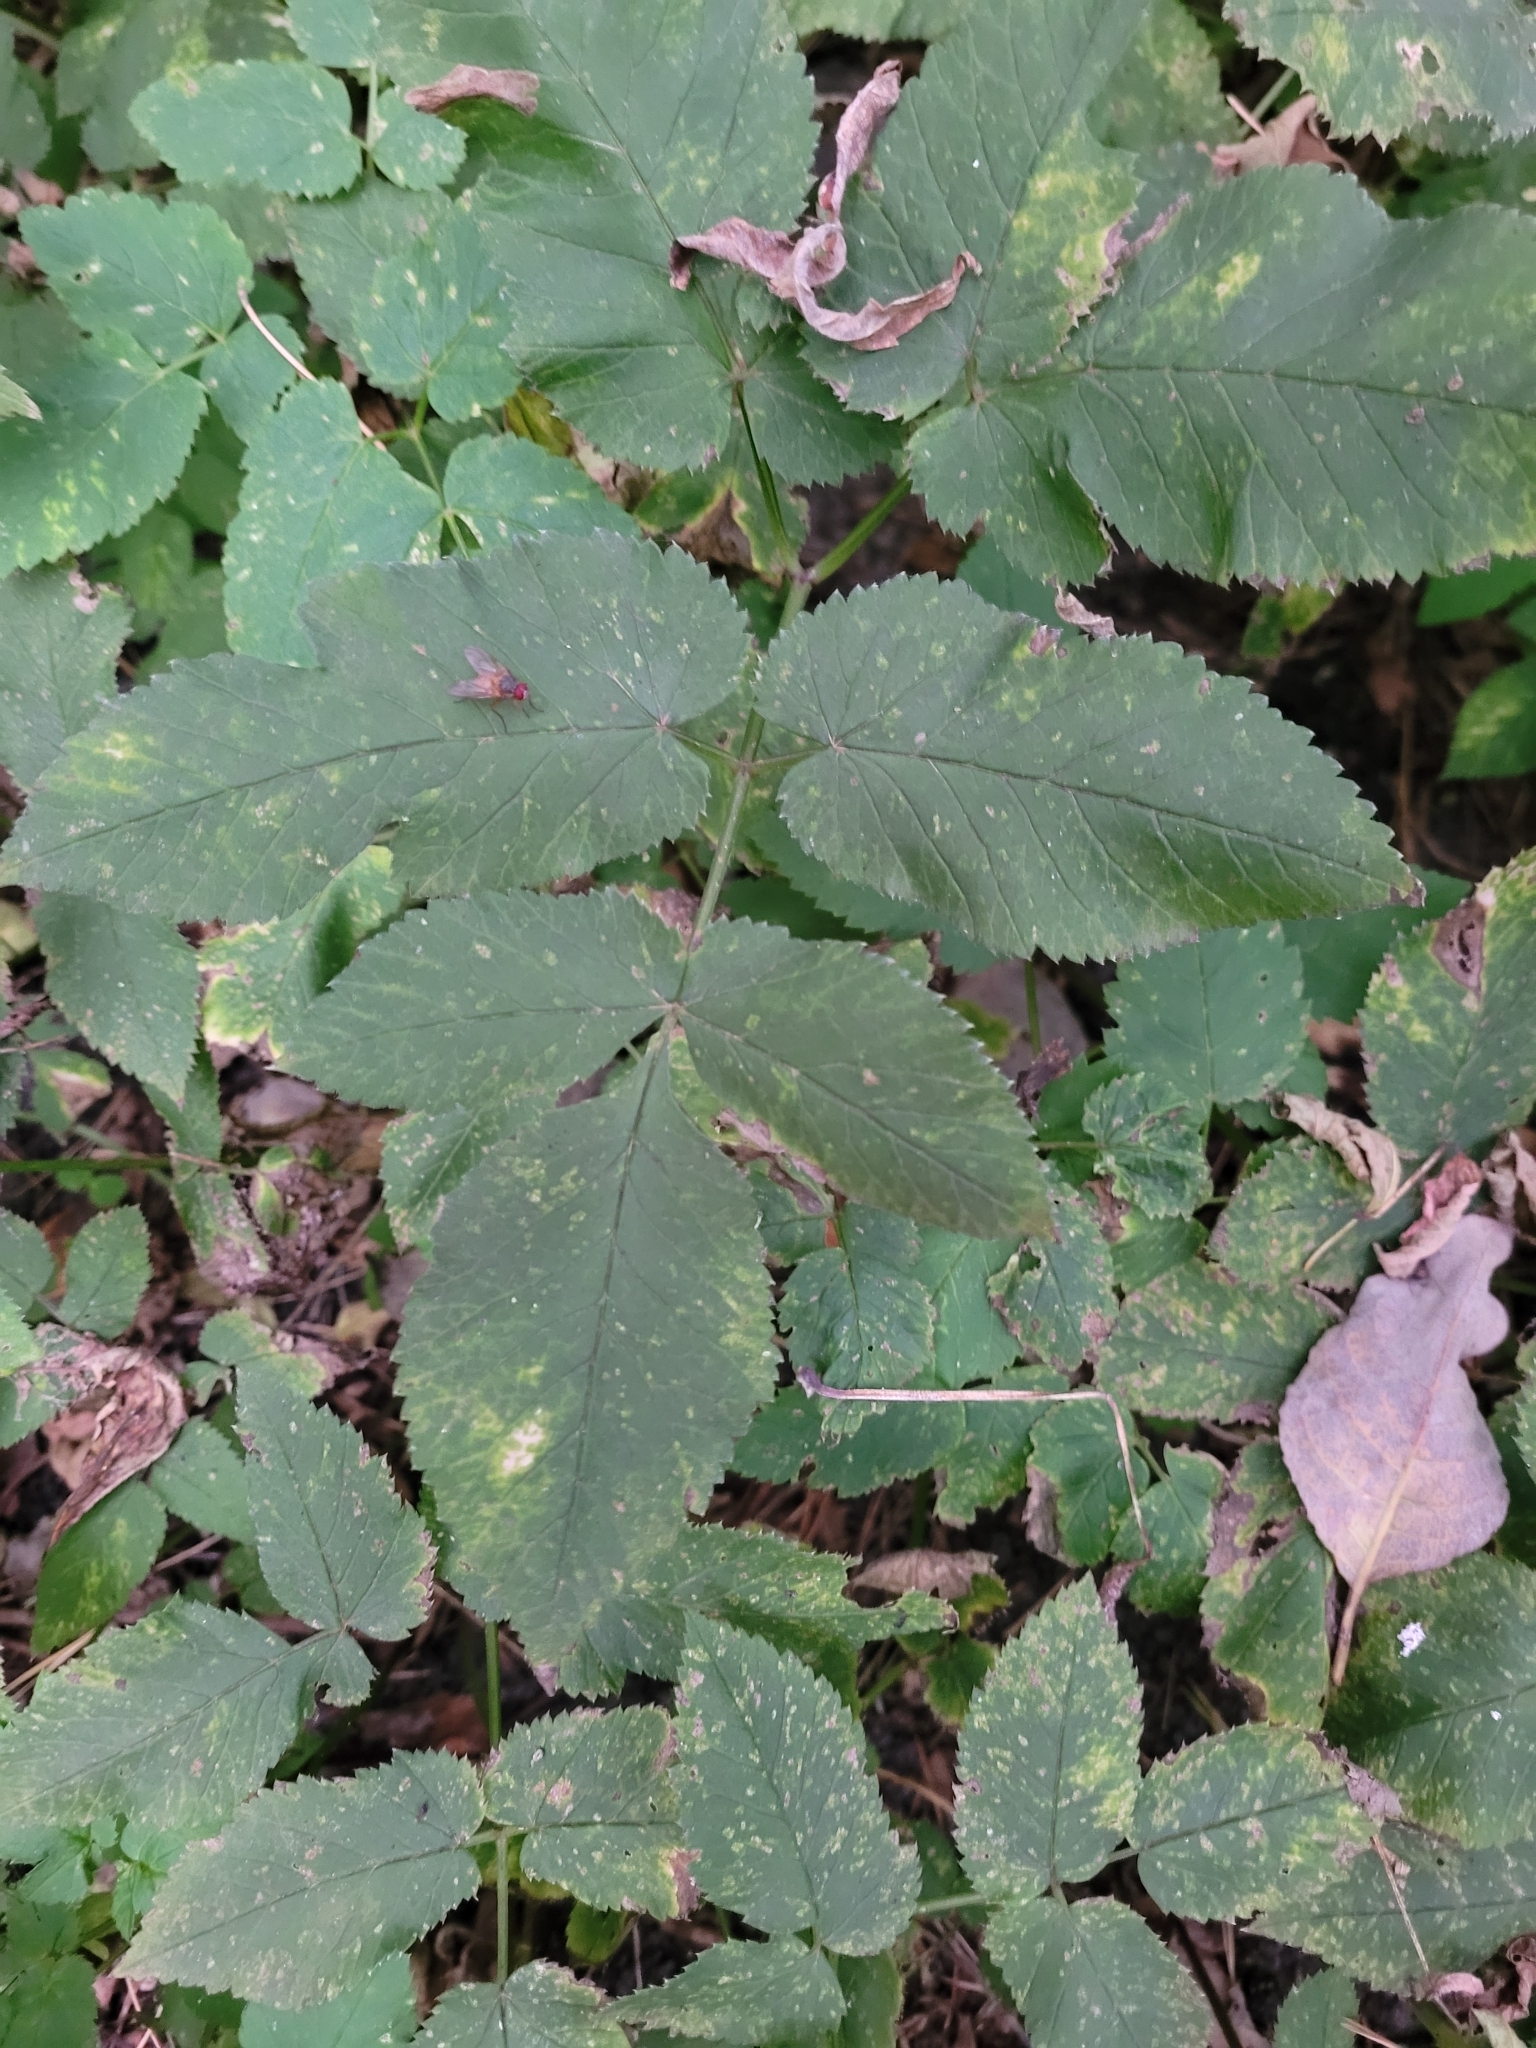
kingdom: Plantae
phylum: Tracheophyta
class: Magnoliopsida
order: Apiales
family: Apiaceae
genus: Aegopodium
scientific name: Aegopodium podagraria
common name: Ground-elder
